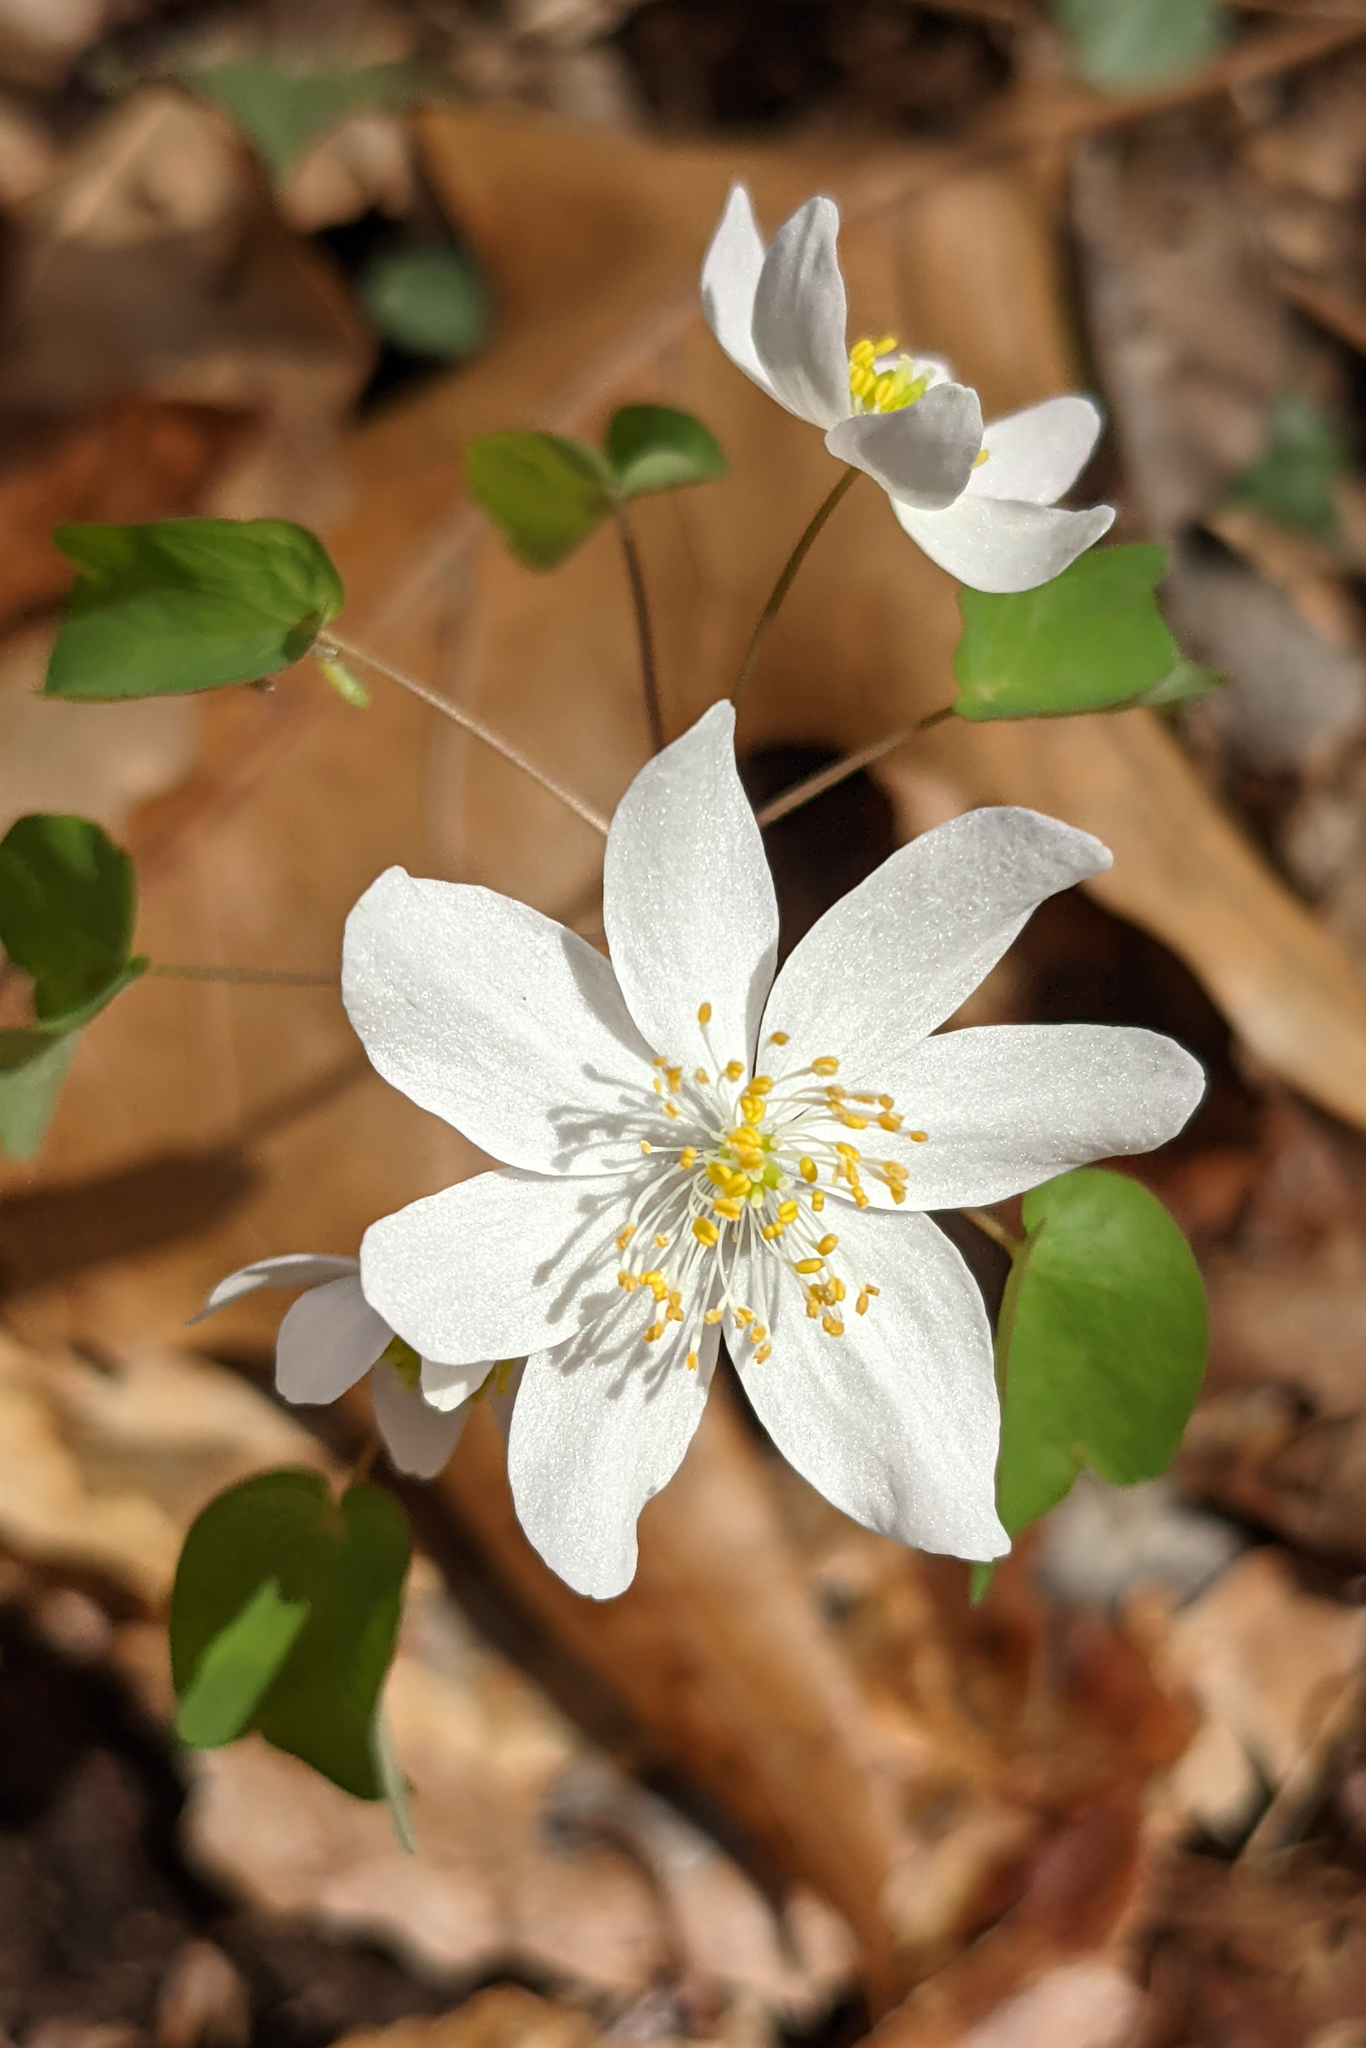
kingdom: Plantae
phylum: Tracheophyta
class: Magnoliopsida
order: Ranunculales
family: Ranunculaceae
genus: Thalictrum
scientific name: Thalictrum thalictroides
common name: Rue-anemone
